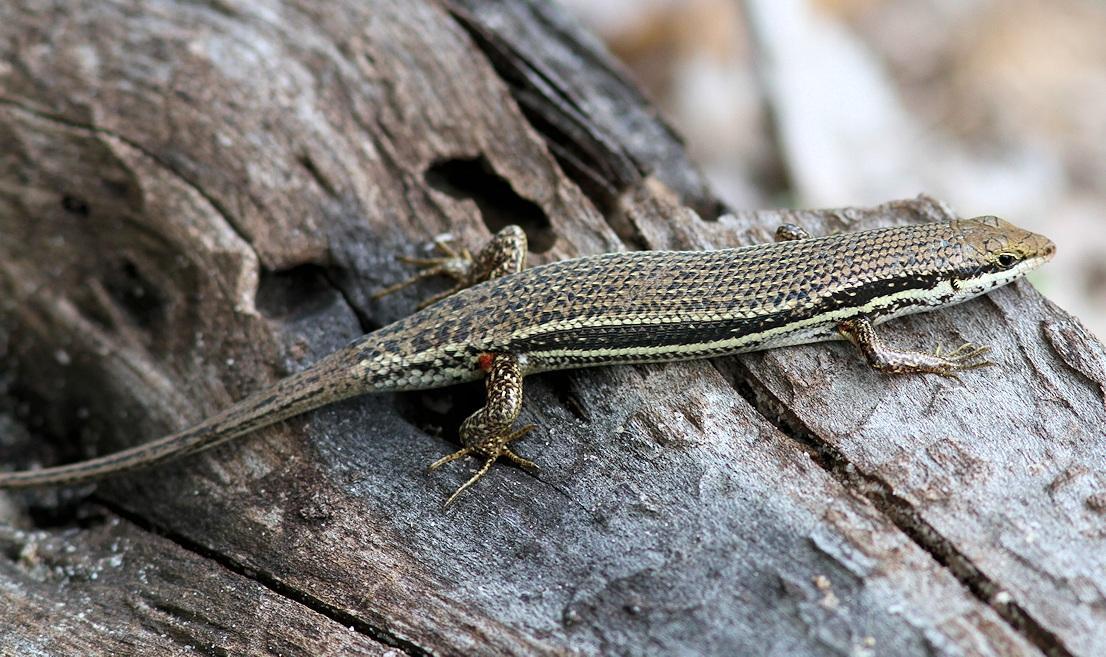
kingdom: Animalia
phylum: Chordata
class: Squamata
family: Scincidae
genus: Trachylepis
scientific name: Trachylepis depressa
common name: Eastern coastal skink
